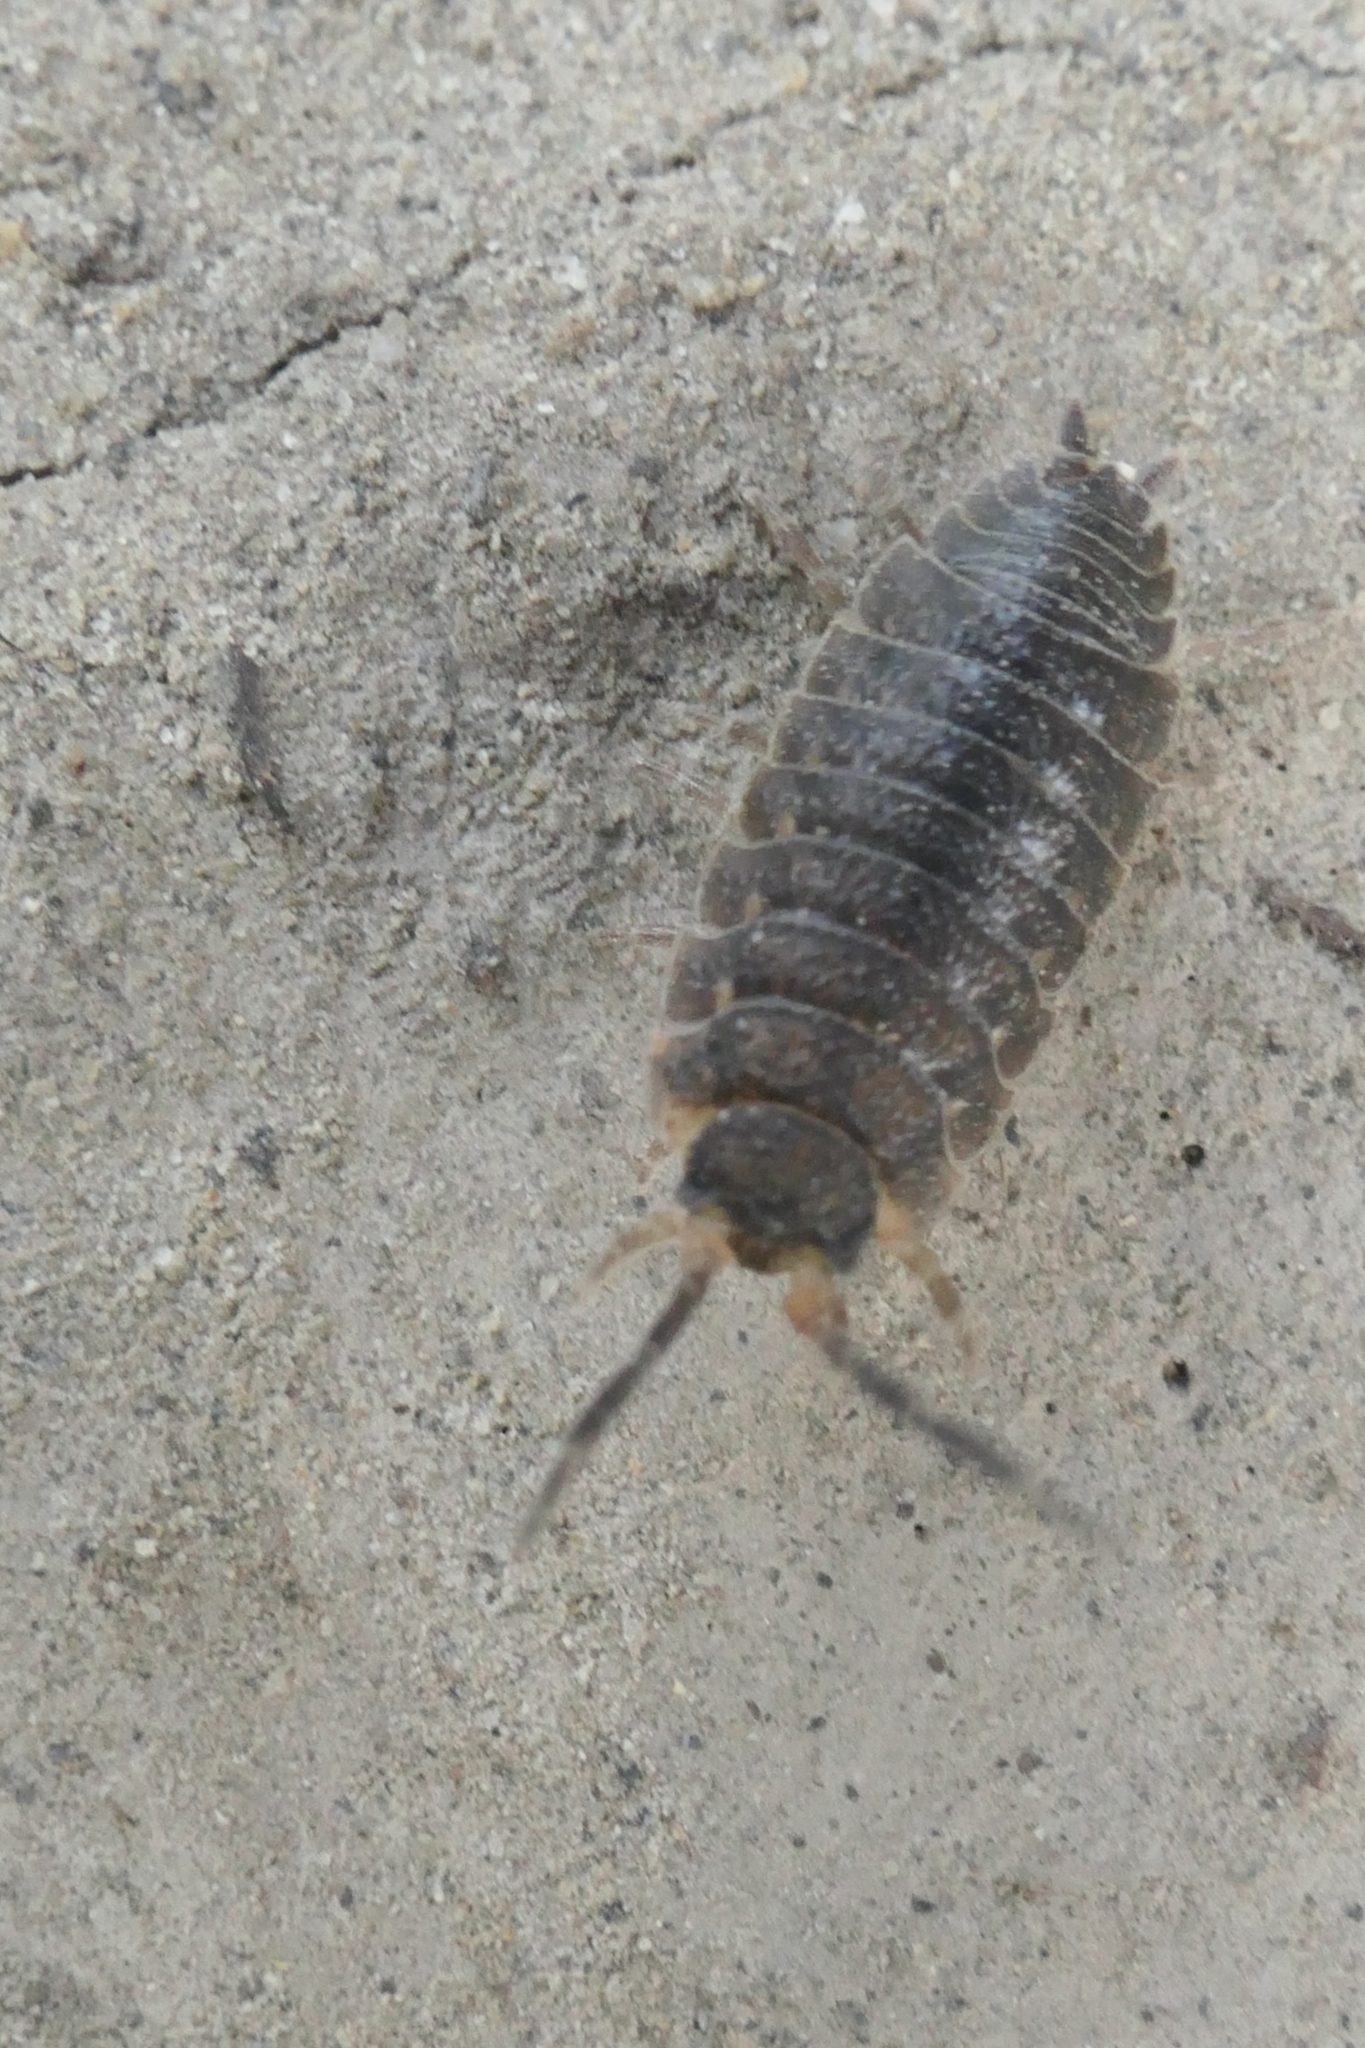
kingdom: Animalia
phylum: Arthropoda
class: Malacostraca
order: Isopoda
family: Porcellionidae
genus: Porcellio
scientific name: Porcellio scaber
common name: Common rough woodlouse
